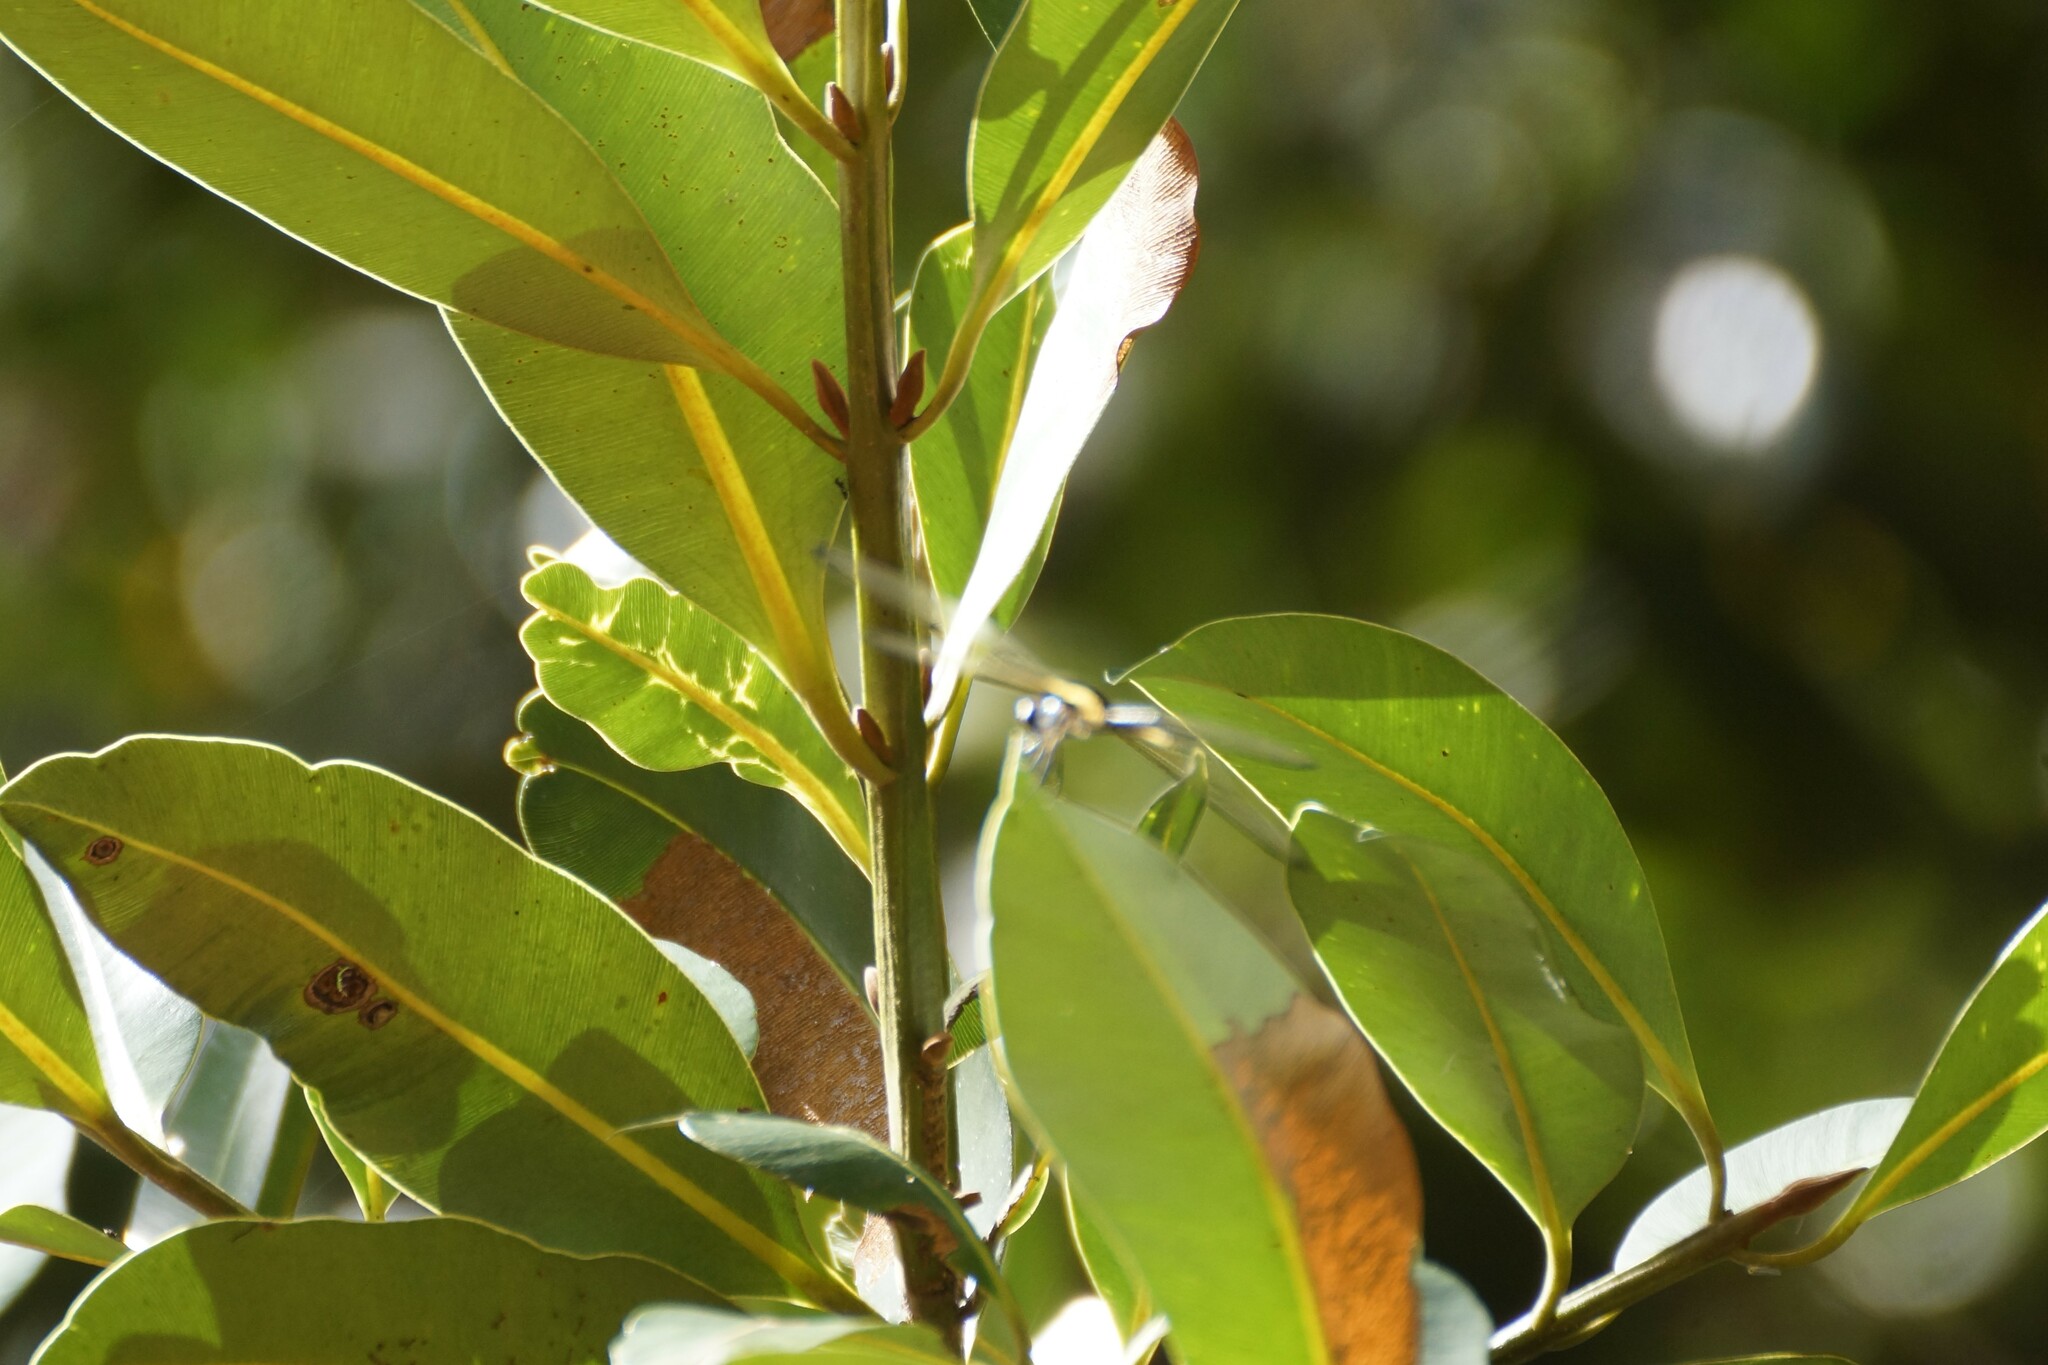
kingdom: Animalia
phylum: Arthropoda
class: Insecta
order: Odonata
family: Libellulidae
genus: Rhyothemis
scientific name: Rhyothemis phyllis
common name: Yellow-barred flutterer
